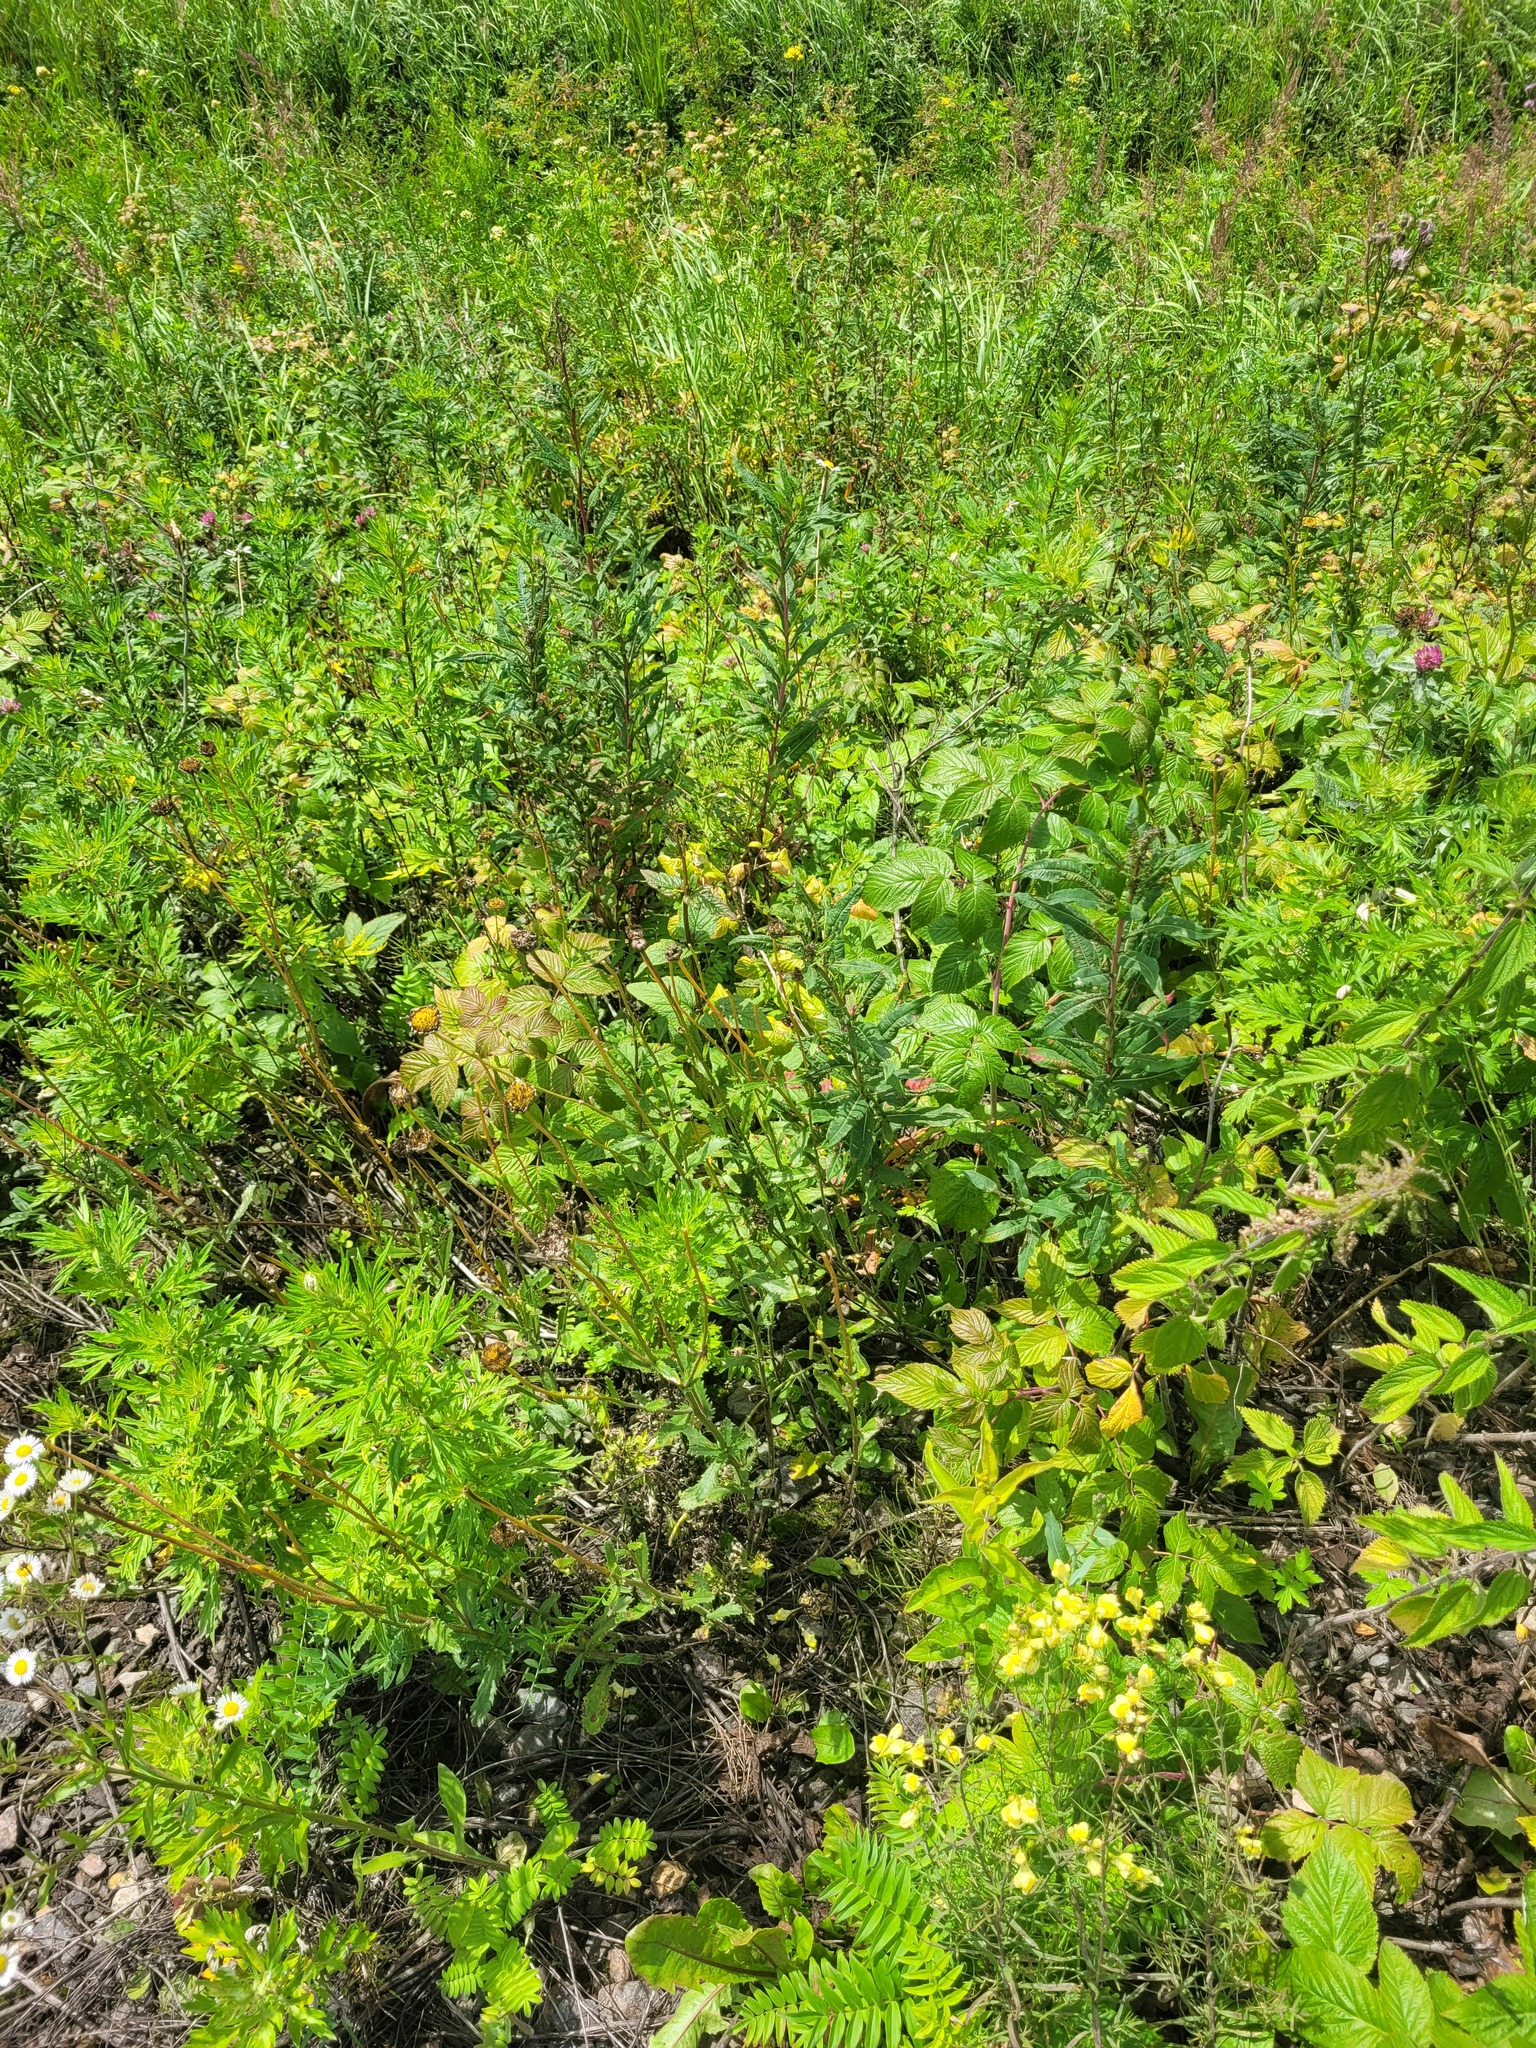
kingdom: Plantae
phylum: Tracheophyta
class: Magnoliopsida
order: Asterales
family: Asteraceae
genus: Leucanthemum
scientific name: Leucanthemum vulgare
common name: Oxeye daisy
